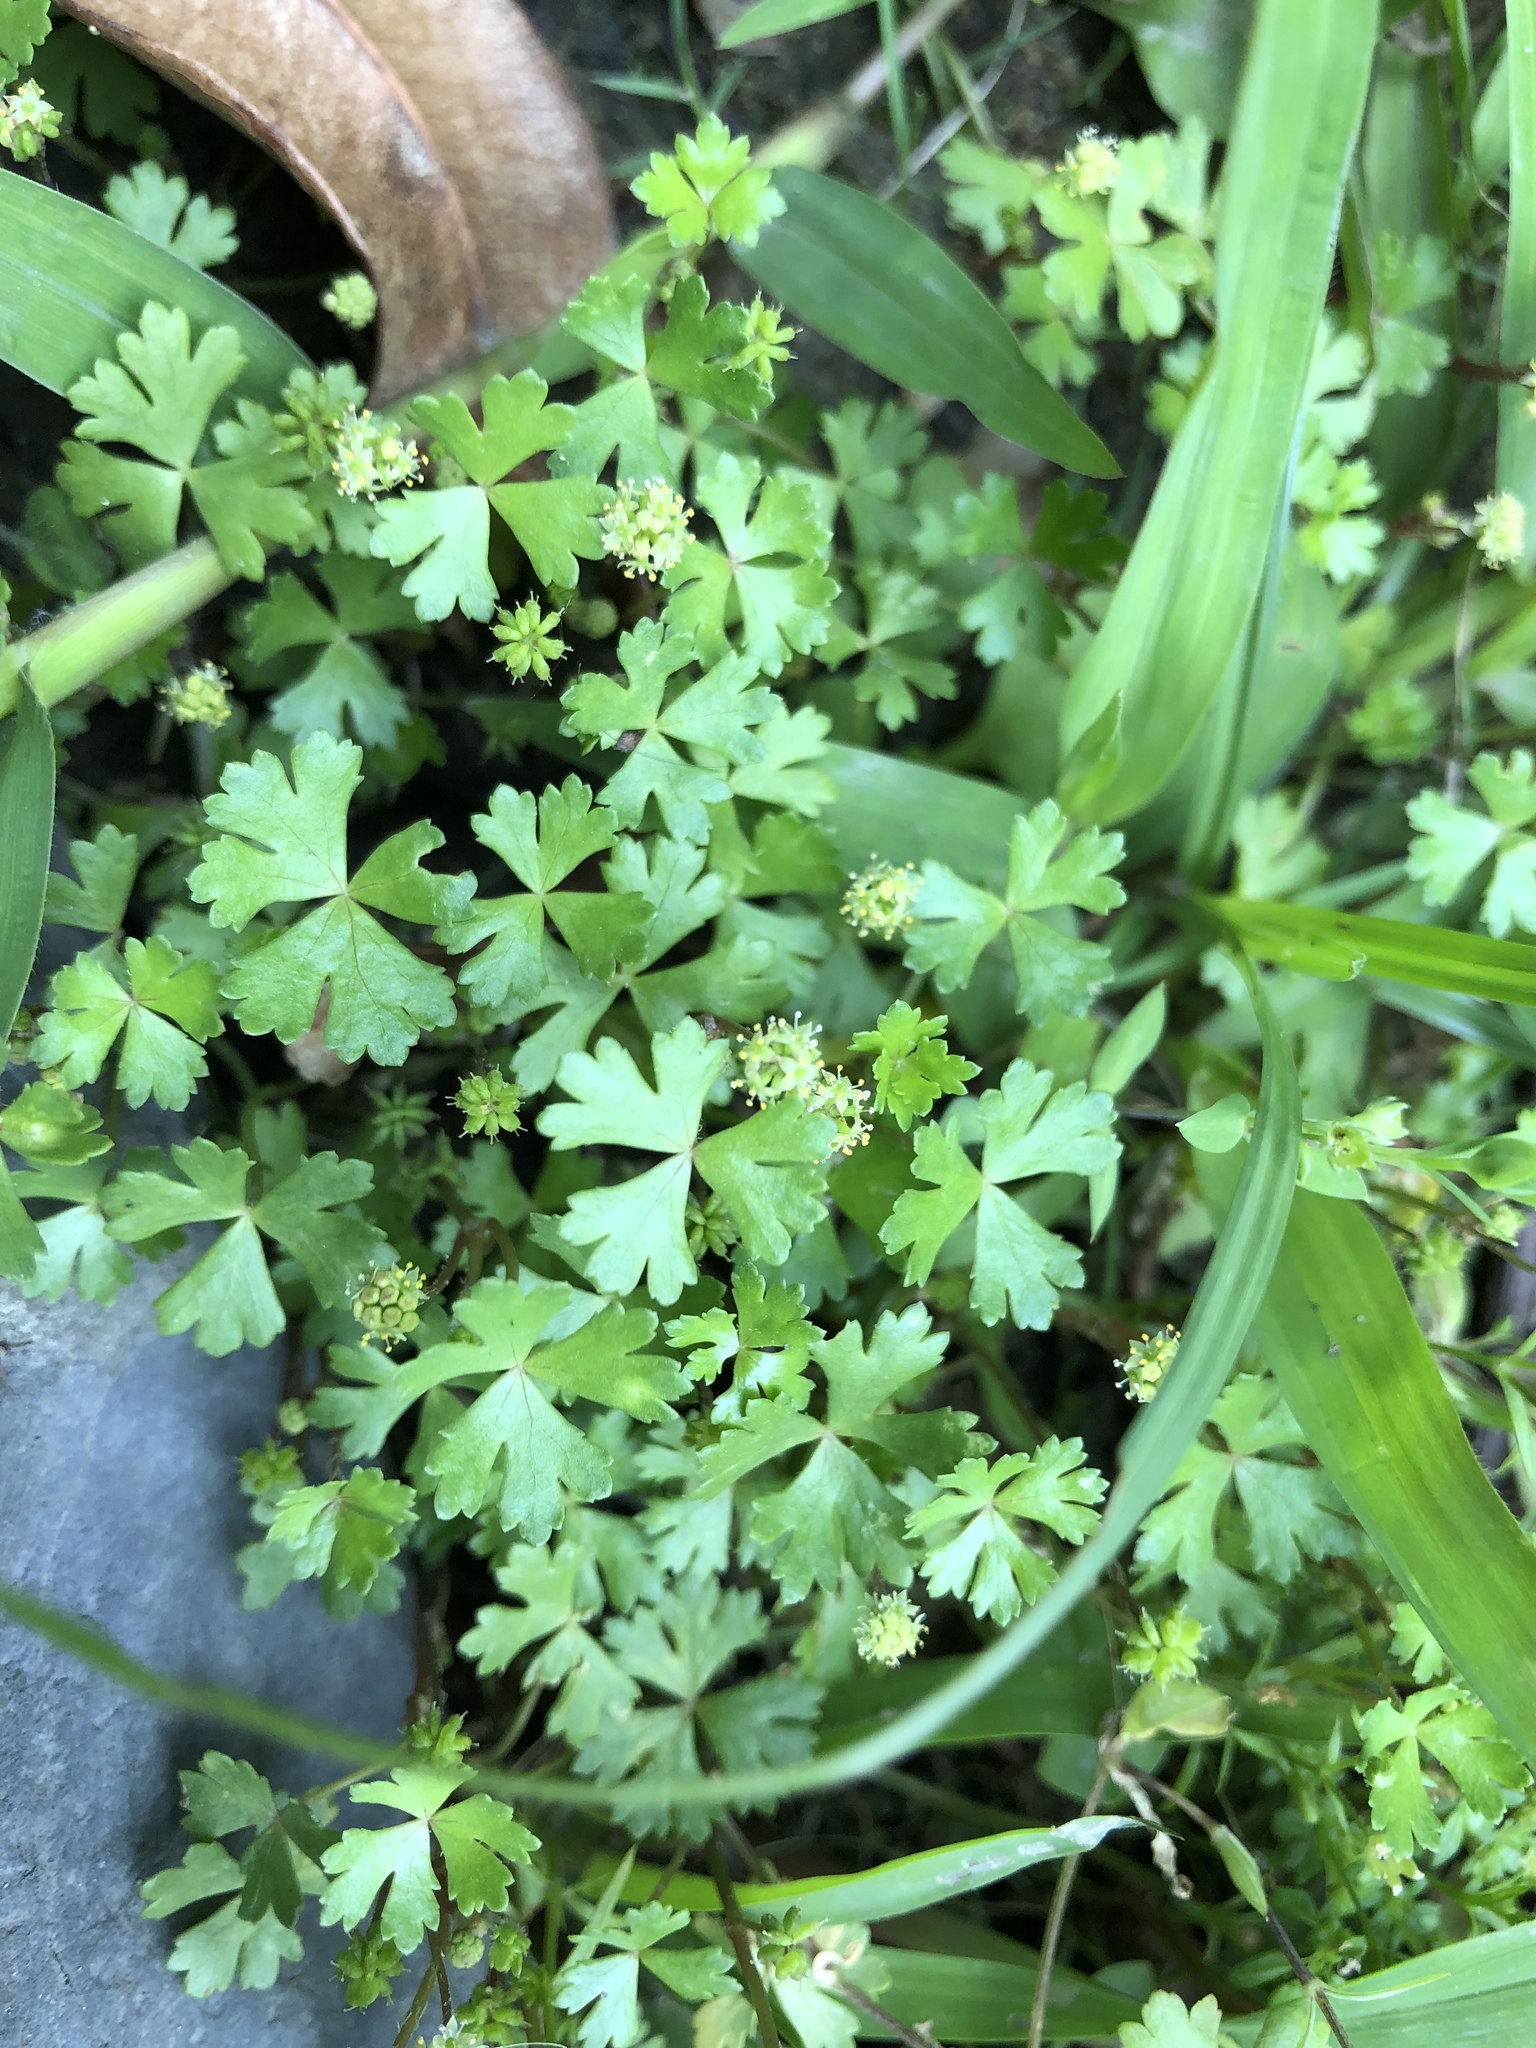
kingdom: Plantae
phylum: Tracheophyta
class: Magnoliopsida
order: Apiales
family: Araliaceae
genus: Hydrocotyle
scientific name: Hydrocotyle batrachium
